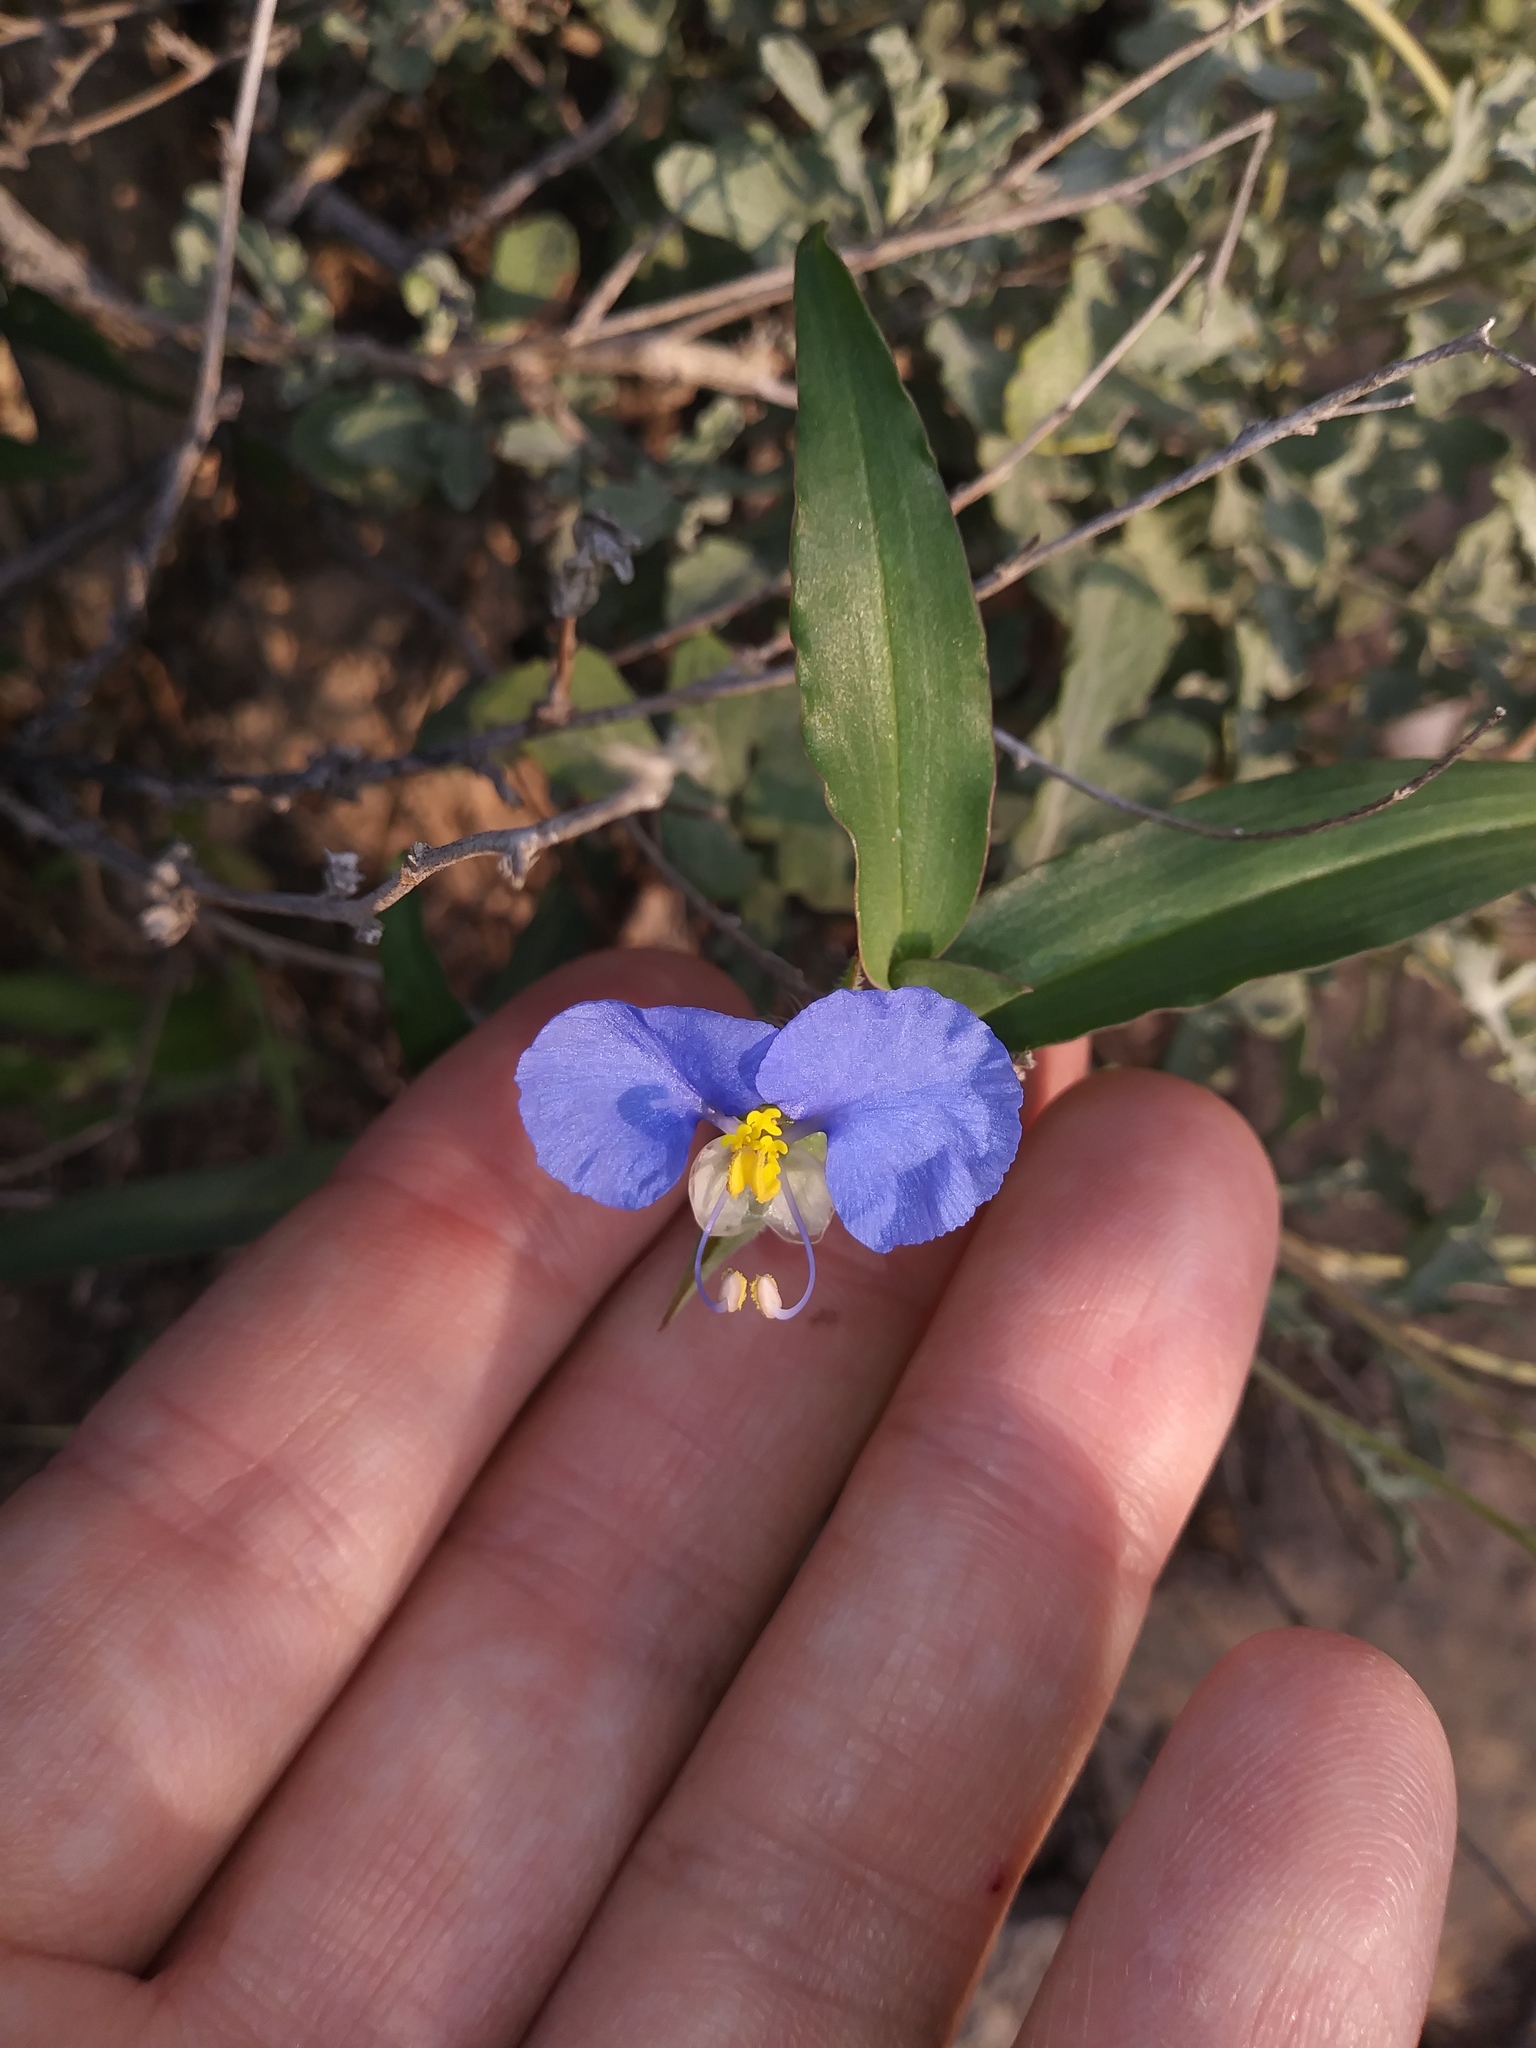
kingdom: Plantae
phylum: Tracheophyta
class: Liliopsida
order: Commelinales
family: Commelinaceae
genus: Commelina
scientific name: Commelina erecta
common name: Blousel blommetjie
